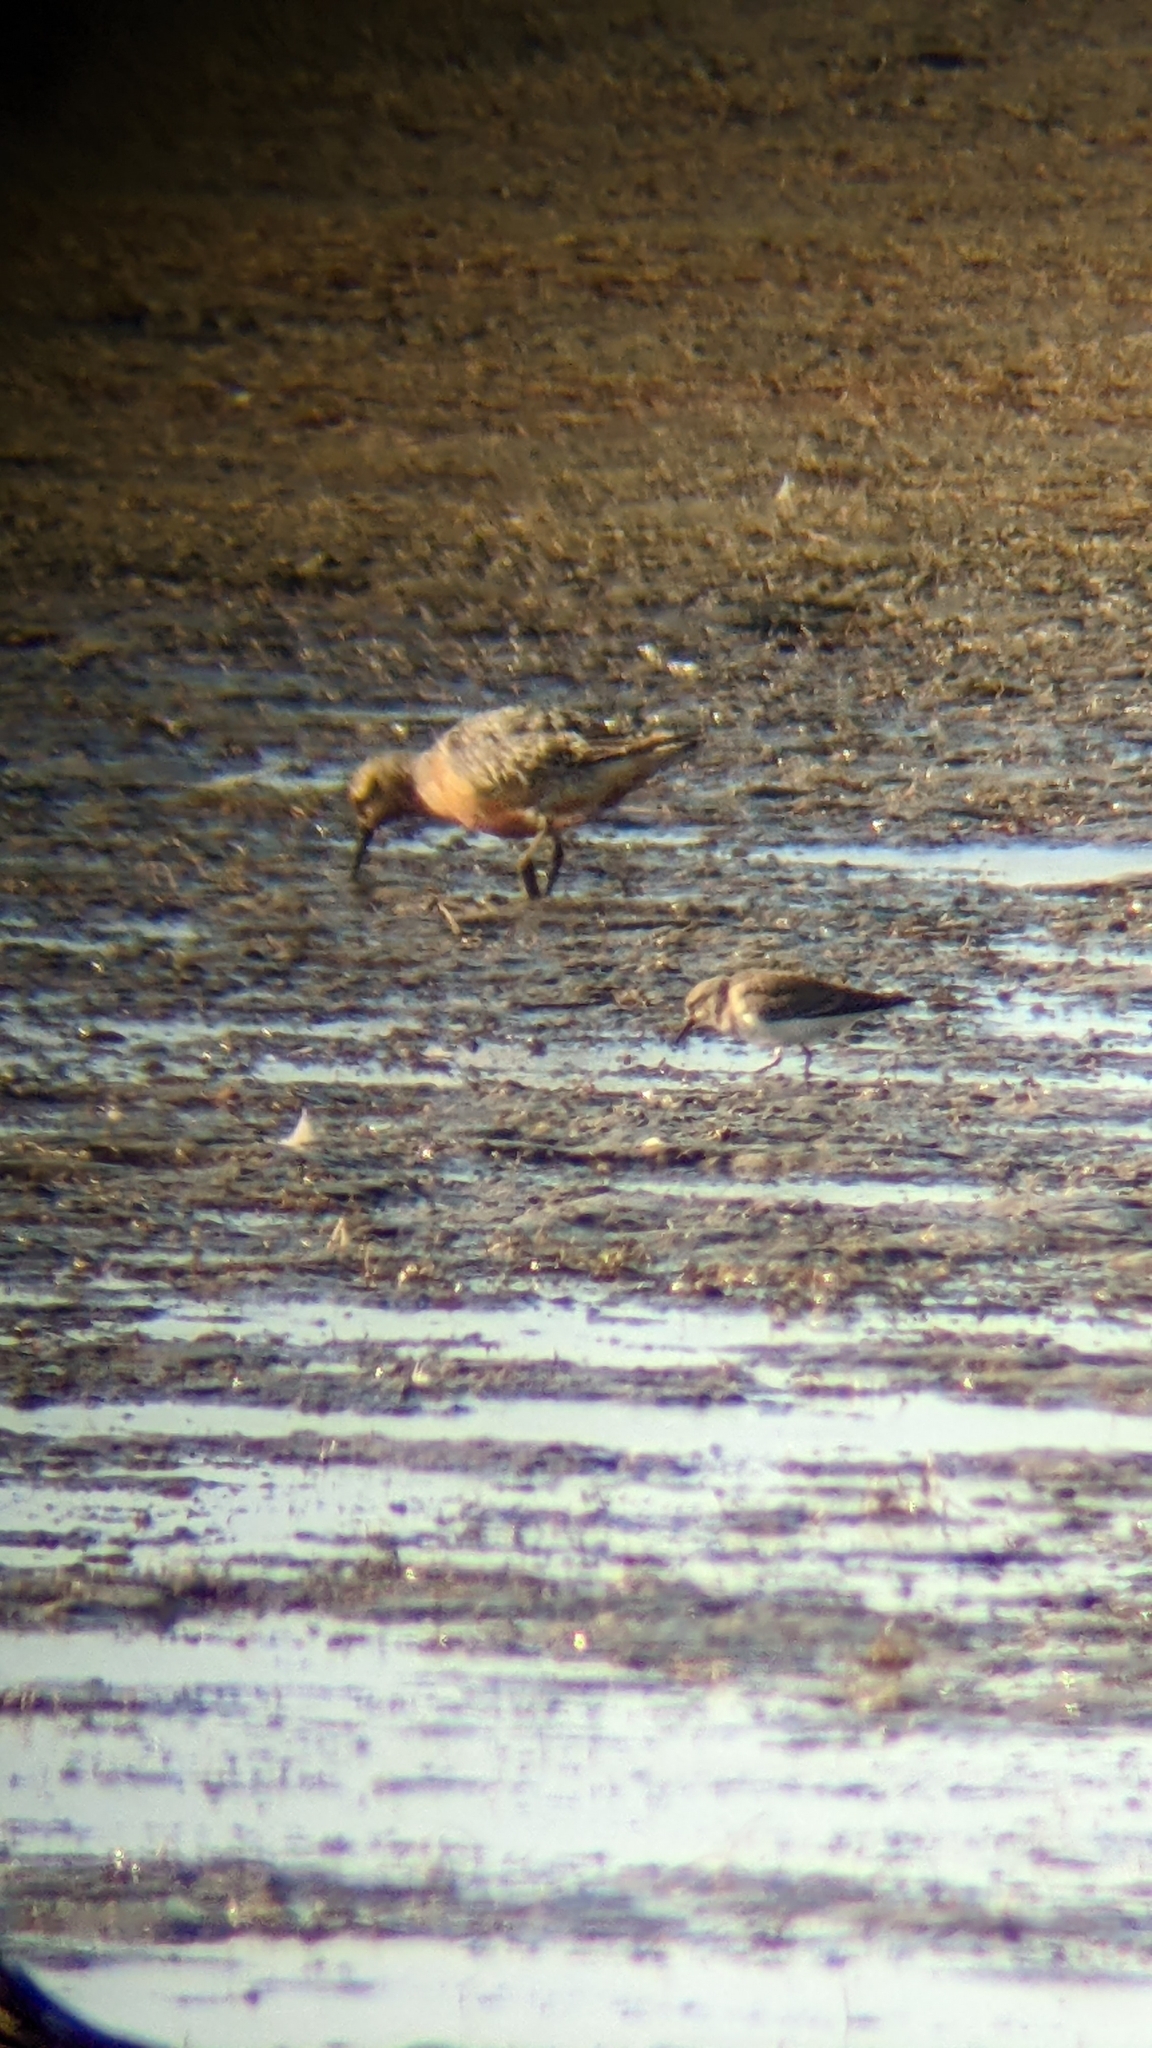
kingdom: Animalia
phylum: Chordata
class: Aves
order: Charadriiformes
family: Scolopacidae
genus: Calidris
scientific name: Calidris temminckii
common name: Temminck's stint
